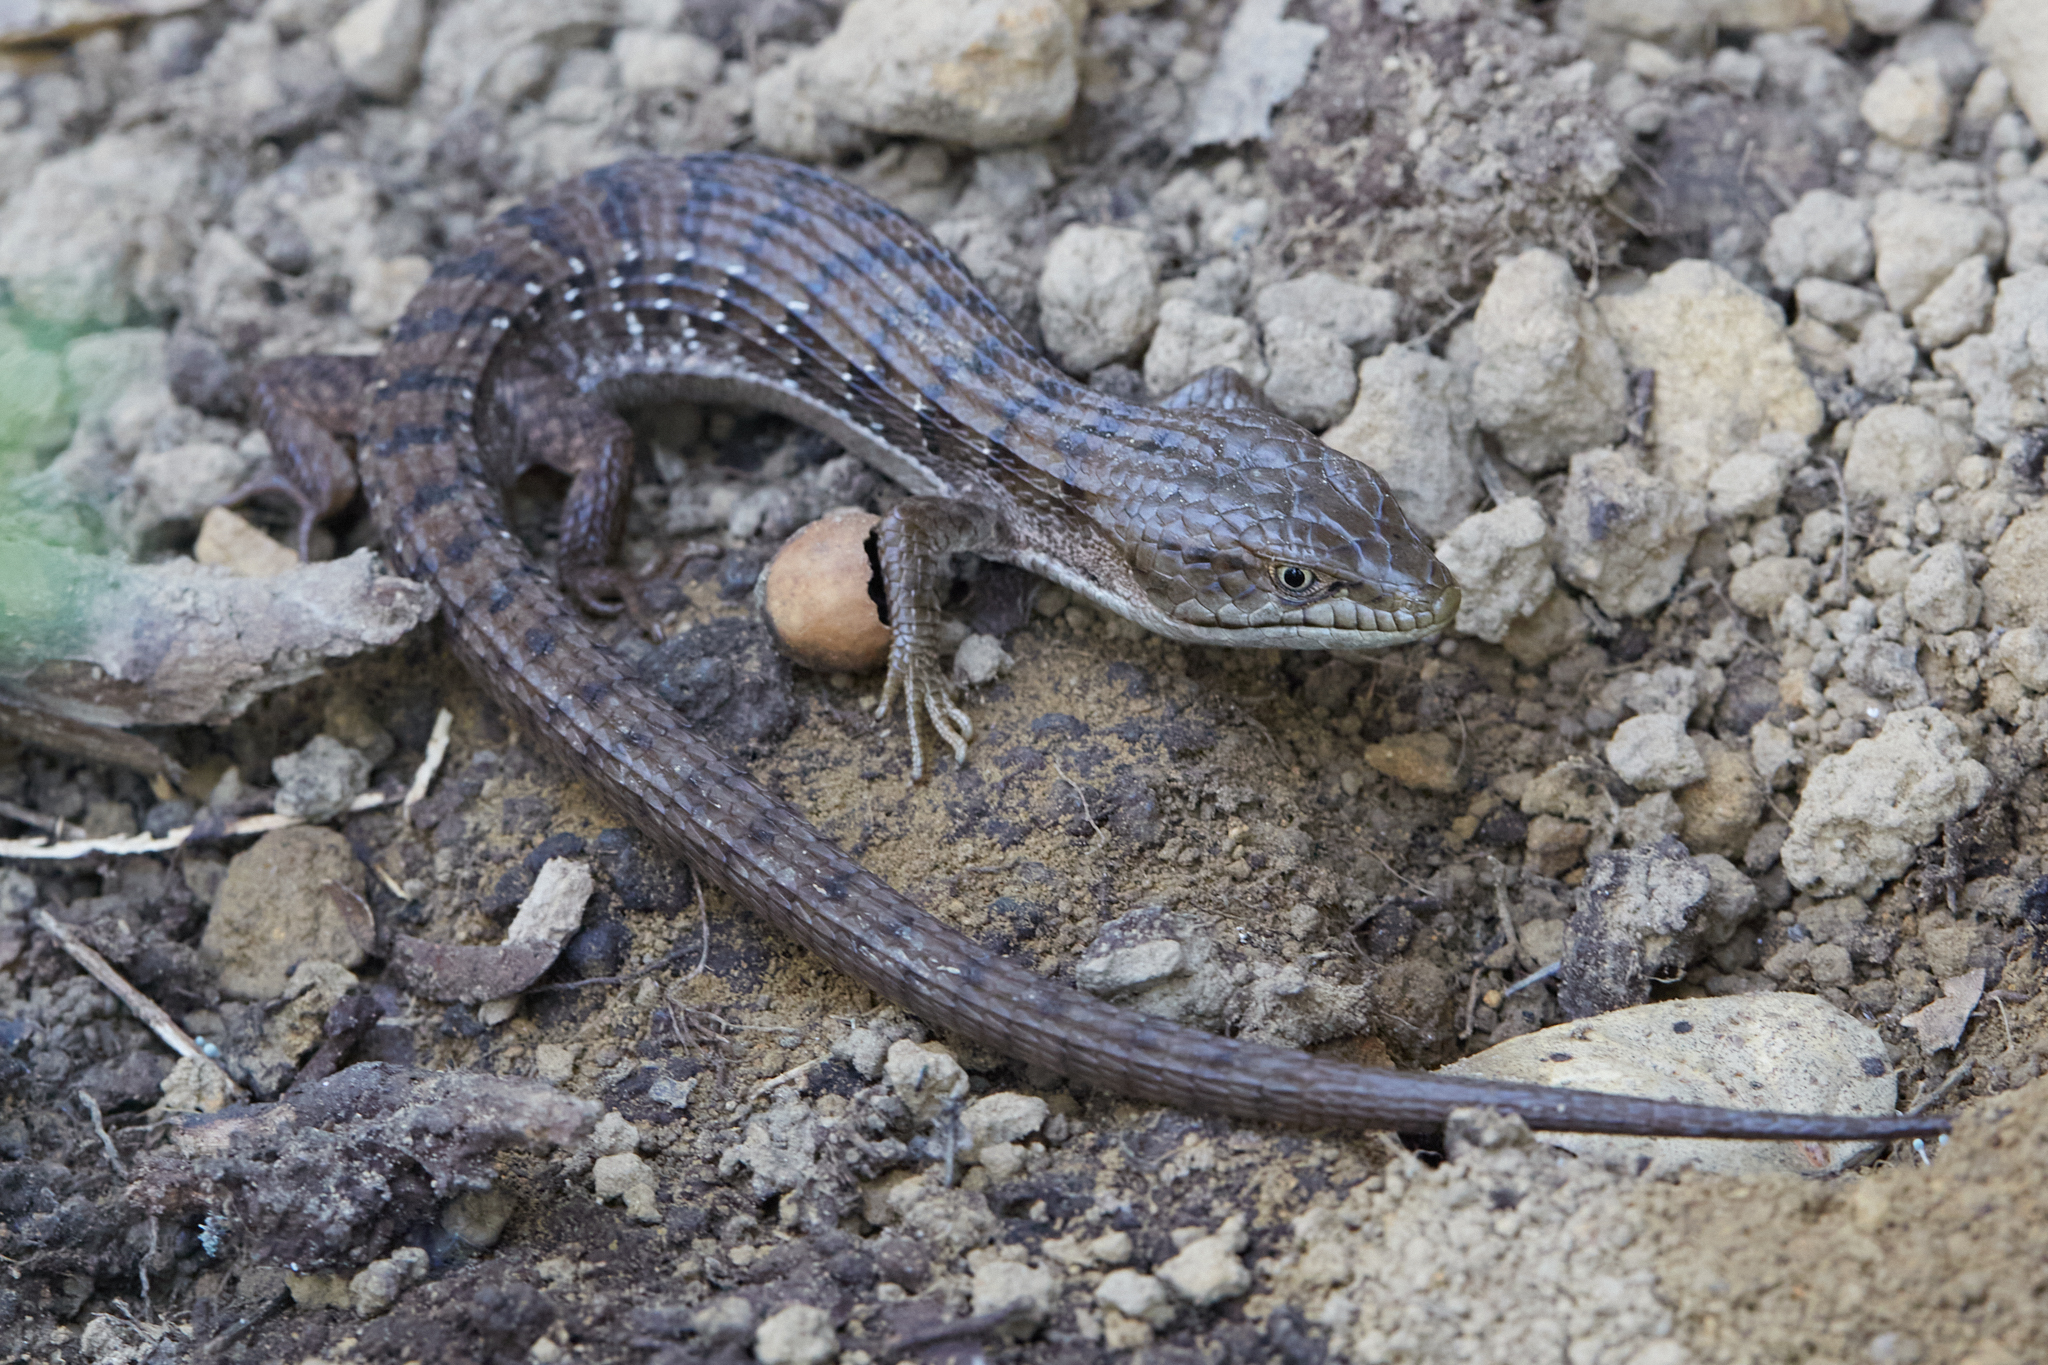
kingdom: Animalia
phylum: Chordata
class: Squamata
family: Anguidae
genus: Elgaria
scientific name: Elgaria multicarinata
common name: Southern alligator lizard
